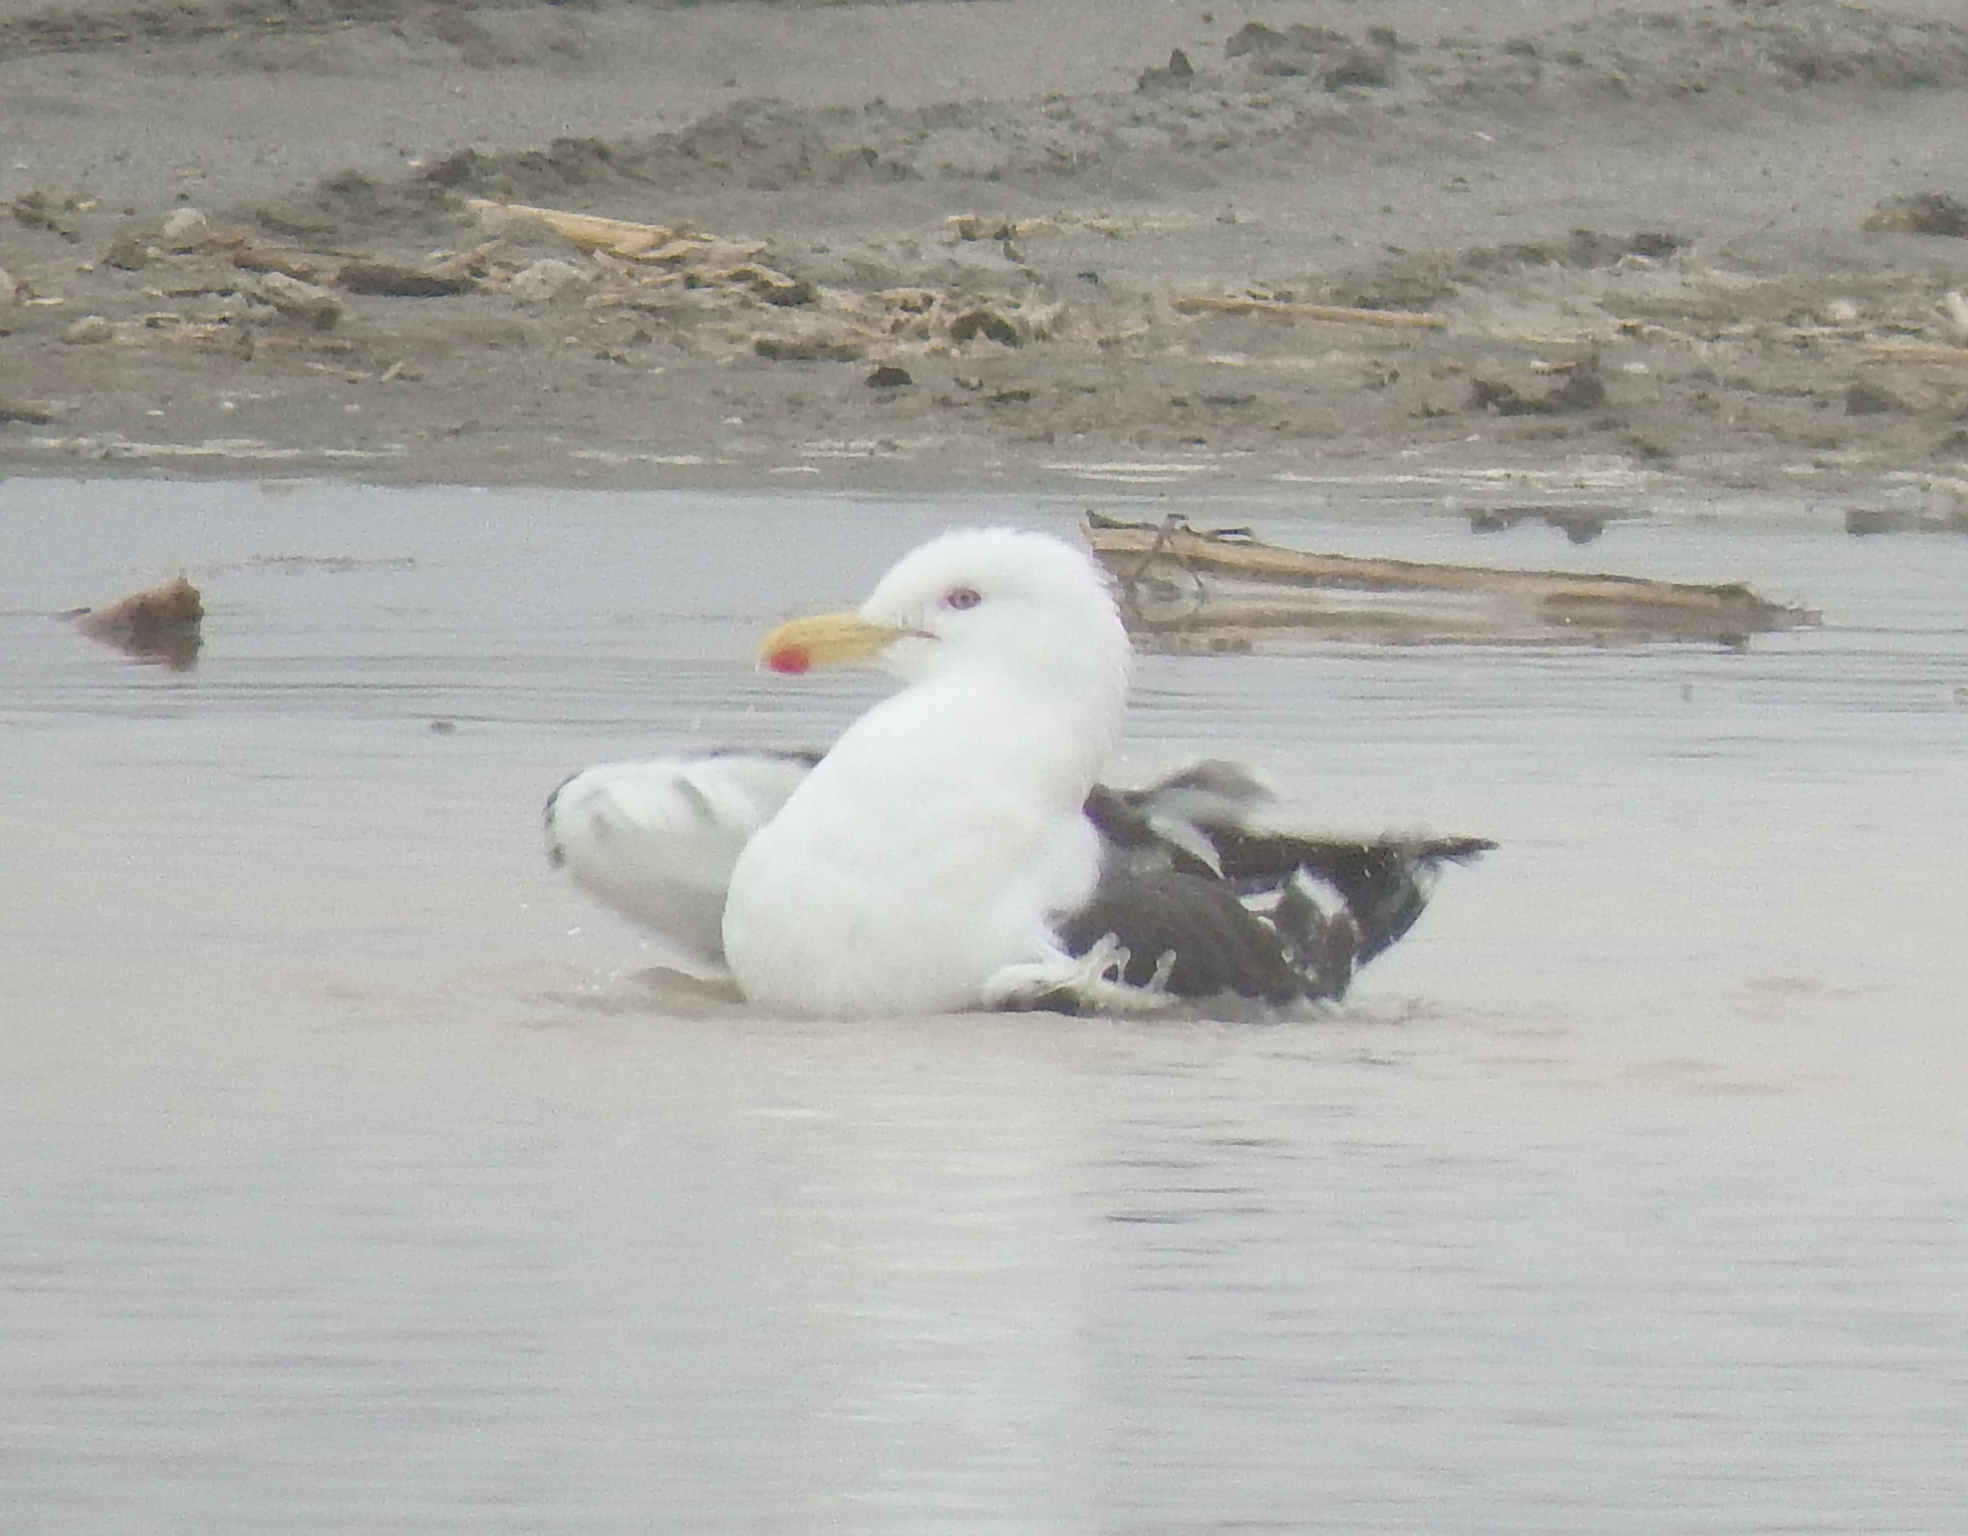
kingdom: Animalia
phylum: Chordata
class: Aves
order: Charadriiformes
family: Laridae
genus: Larus
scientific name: Larus dominicanus
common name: Kelp gull
